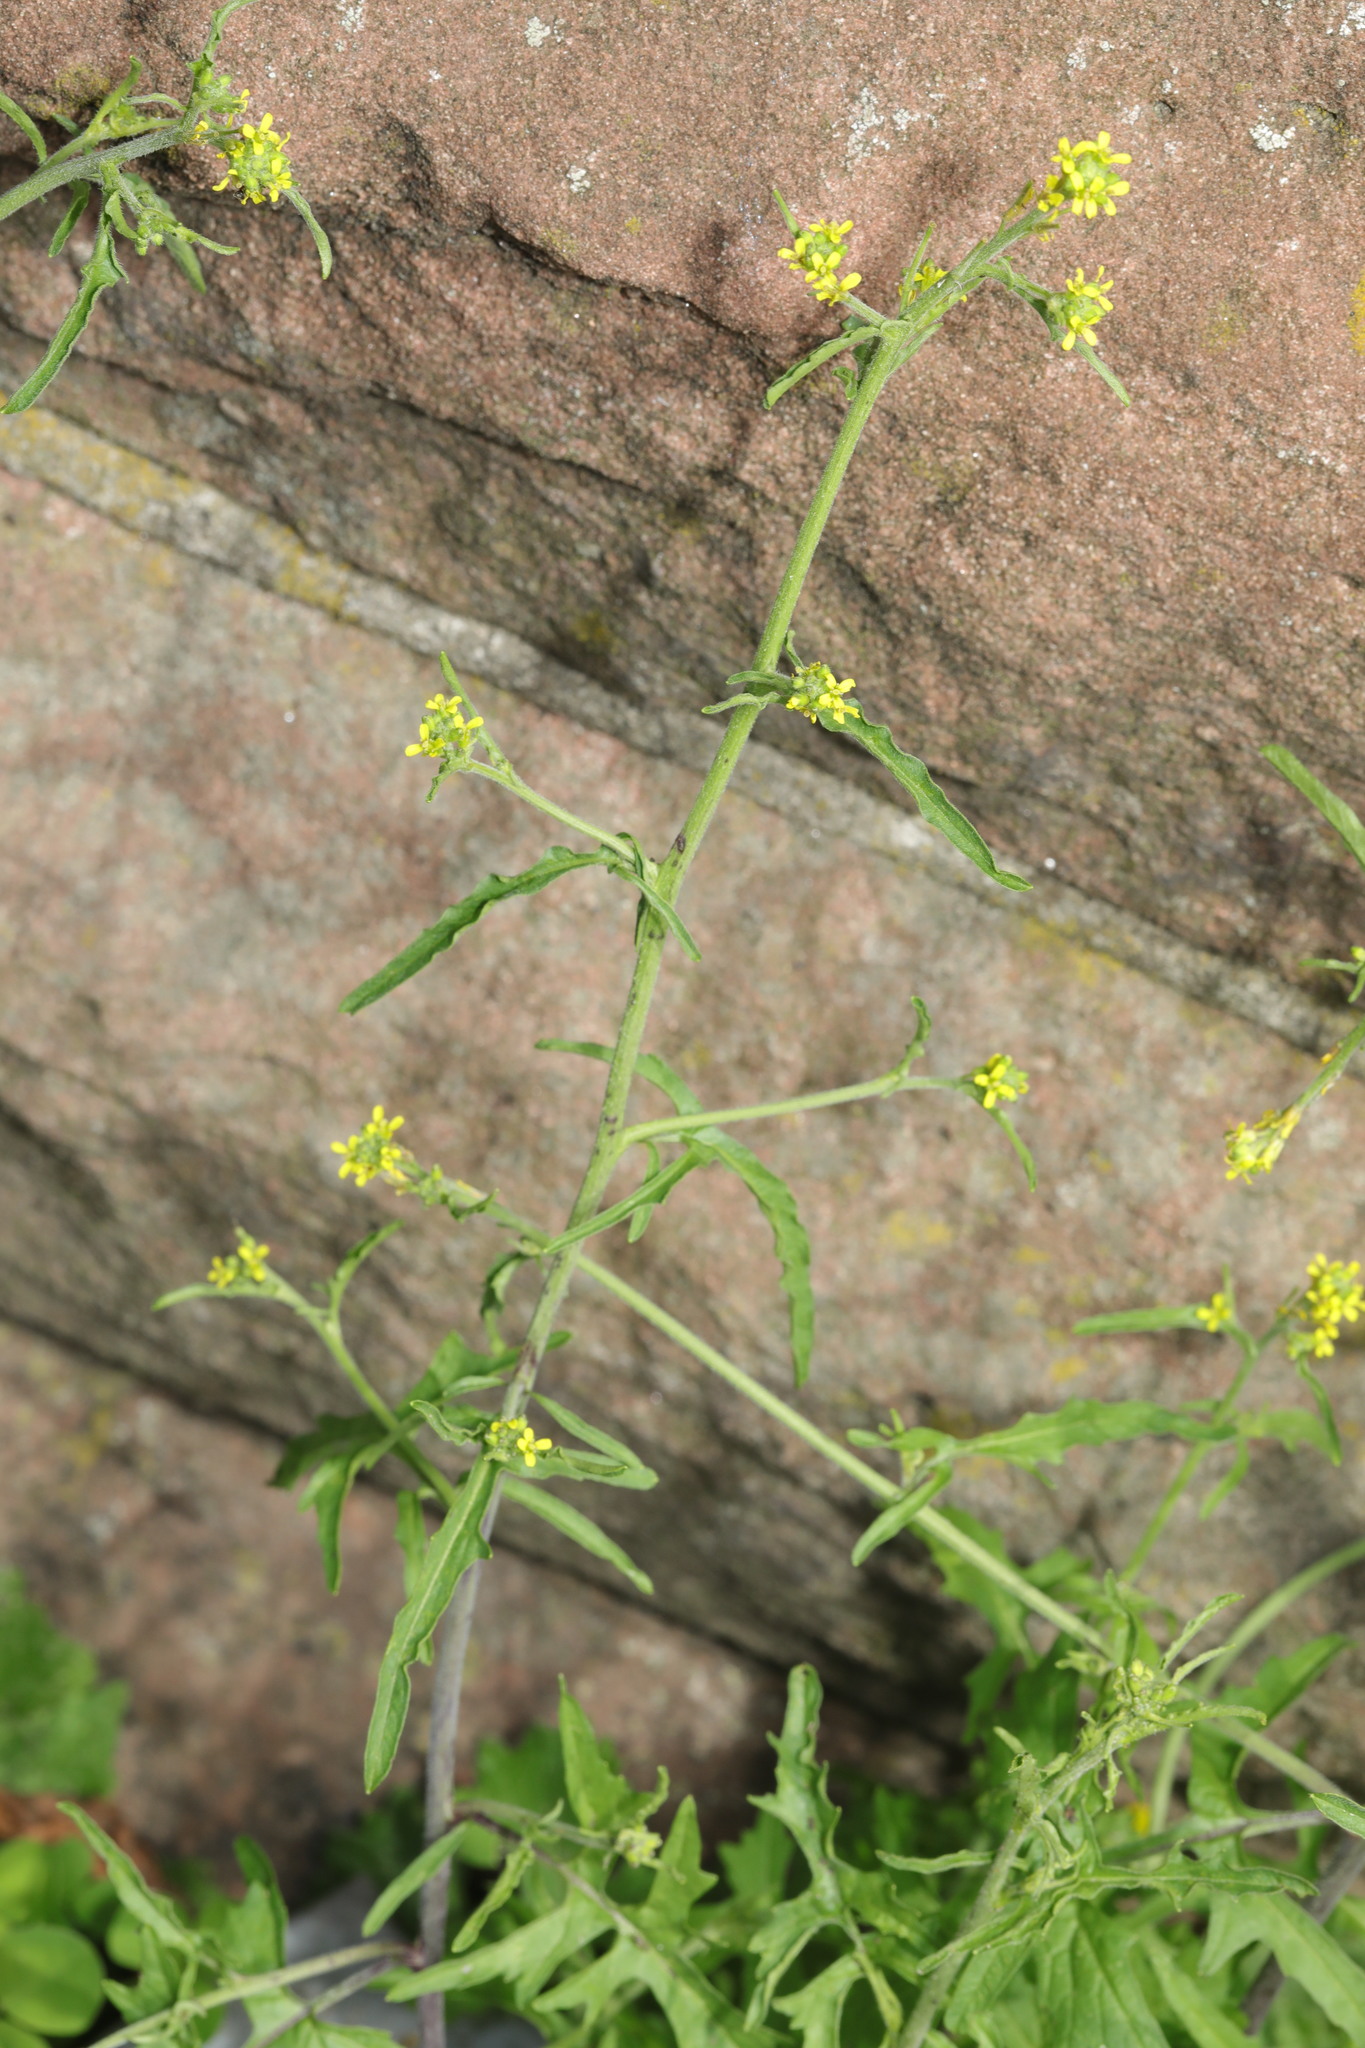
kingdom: Plantae
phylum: Tracheophyta
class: Magnoliopsida
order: Brassicales
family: Brassicaceae
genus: Sisymbrium
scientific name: Sisymbrium officinale
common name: Hedge mustard
